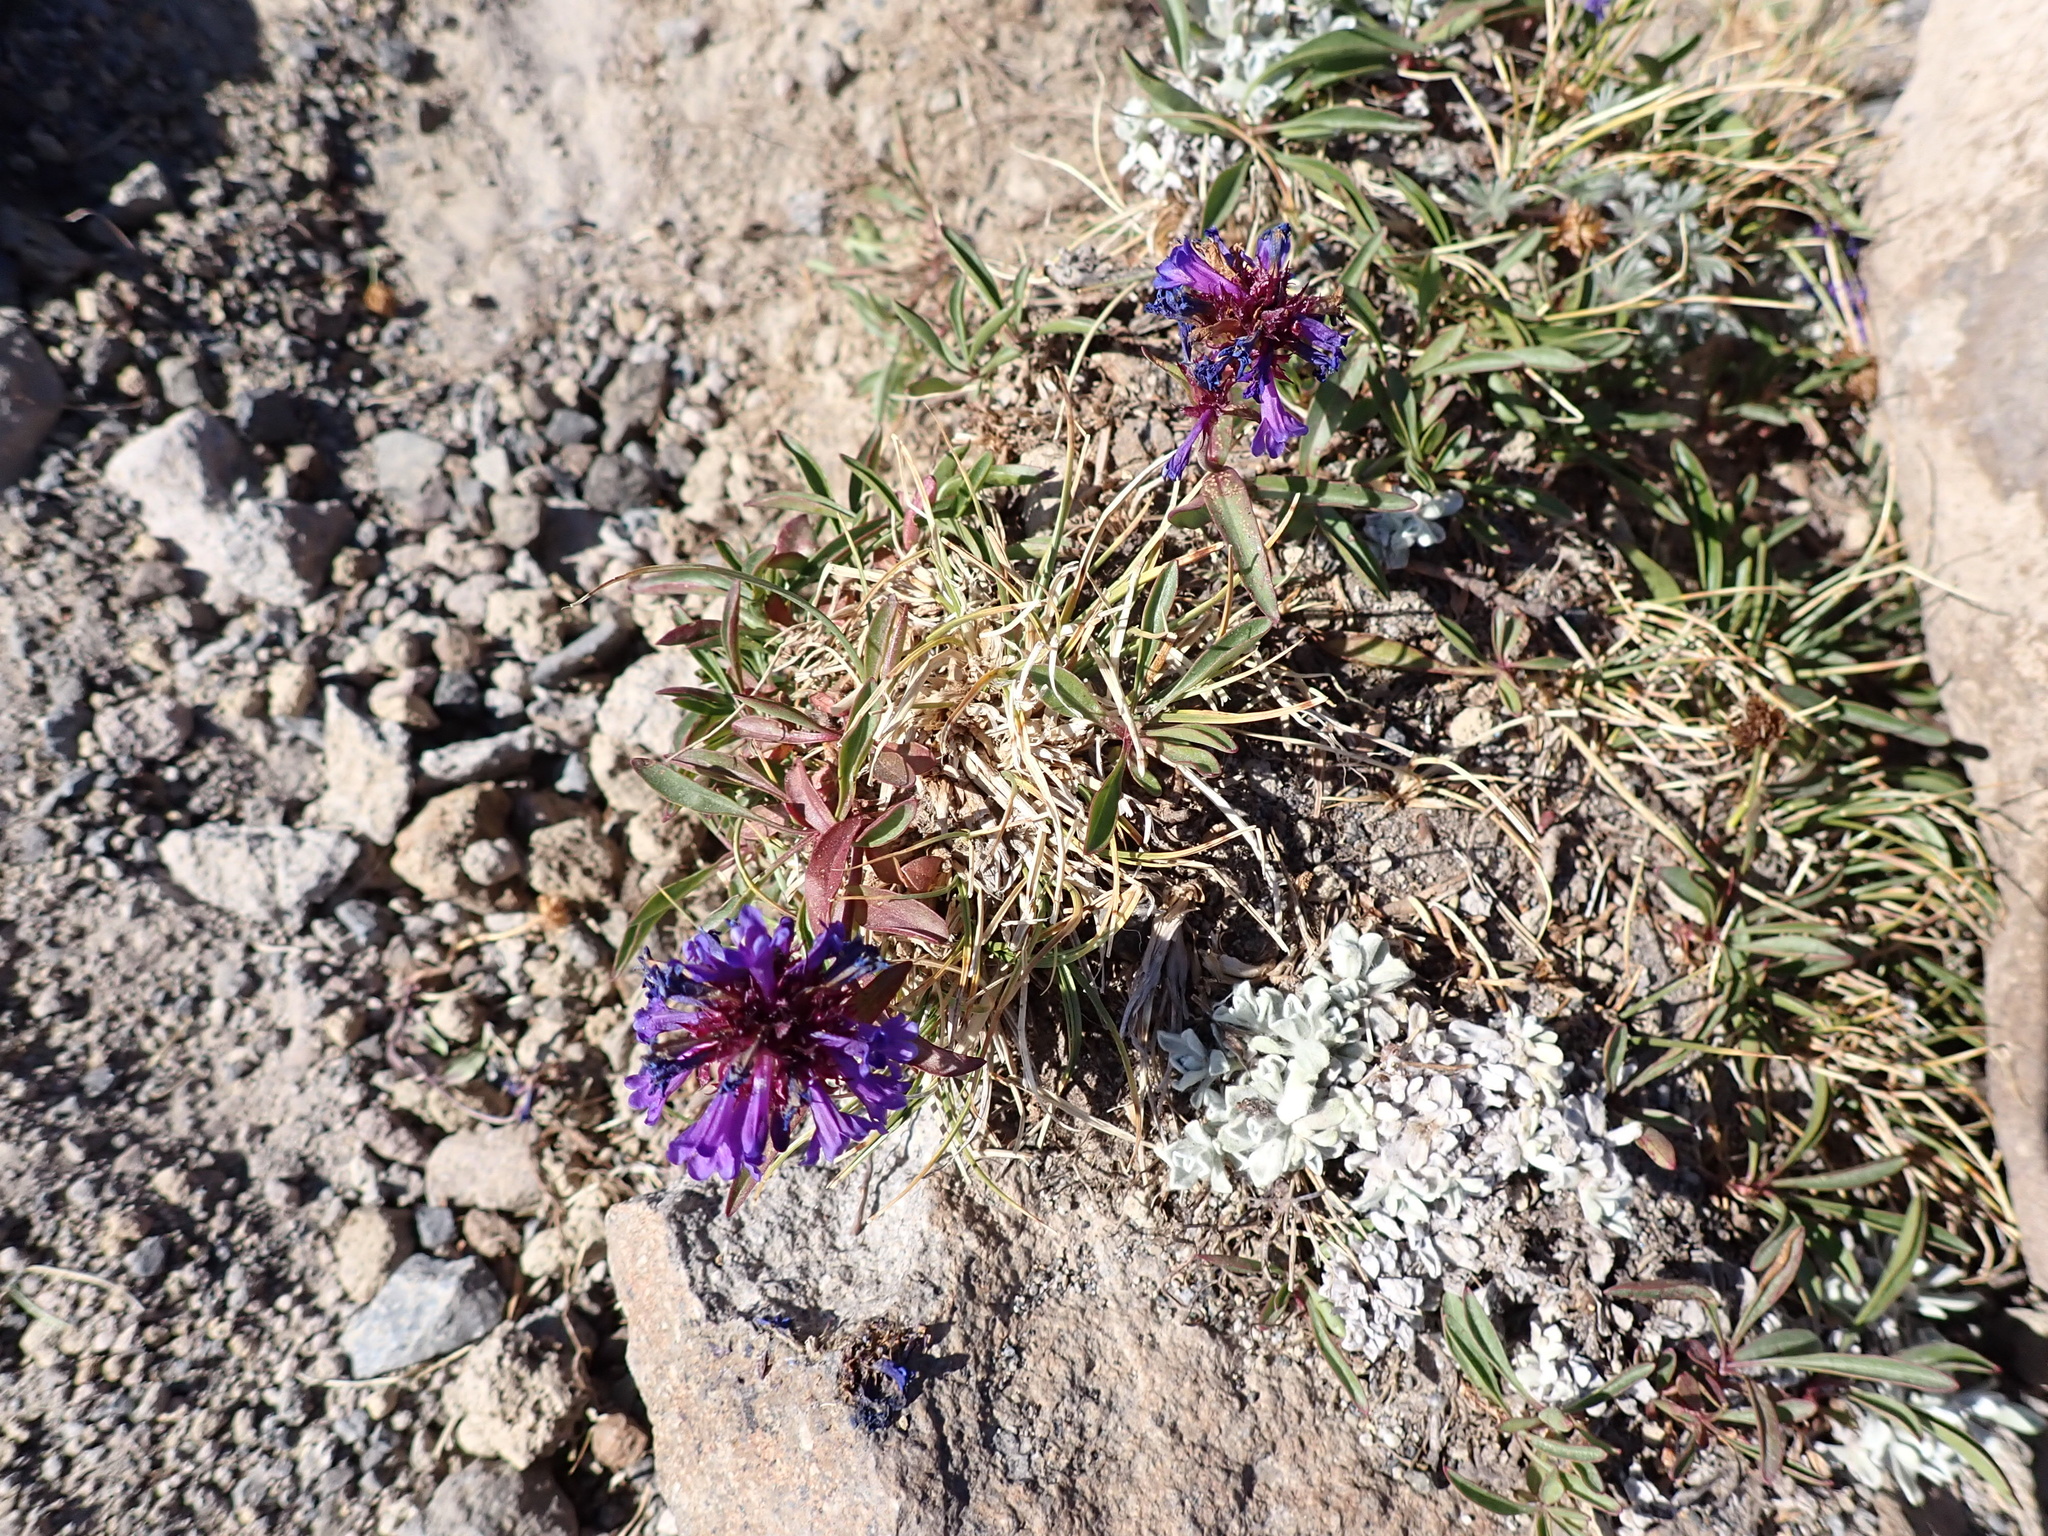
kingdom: Plantae
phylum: Tracheophyta
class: Magnoliopsida
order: Lamiales
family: Plantaginaceae
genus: Penstemon
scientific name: Penstemon procerus
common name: Small-flower penstemon
